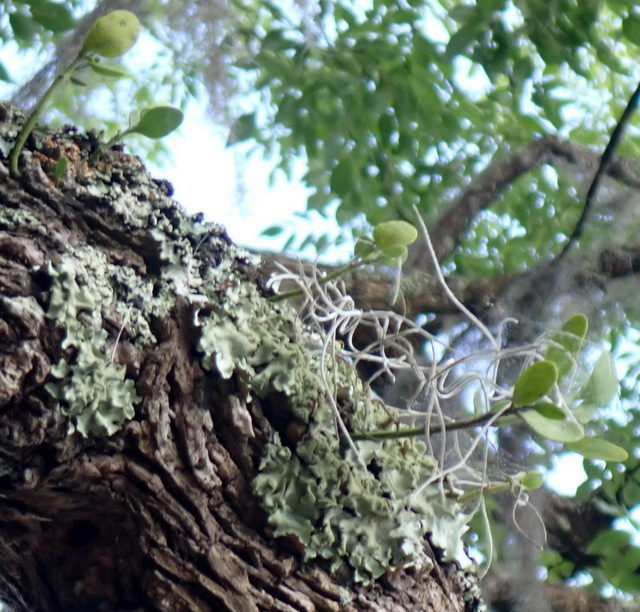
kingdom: Plantae
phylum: Tracheophyta
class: Magnoliopsida
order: Santalales
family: Viscaceae
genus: Phoradendron
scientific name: Phoradendron leucarpum
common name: Pacific mistletoe
